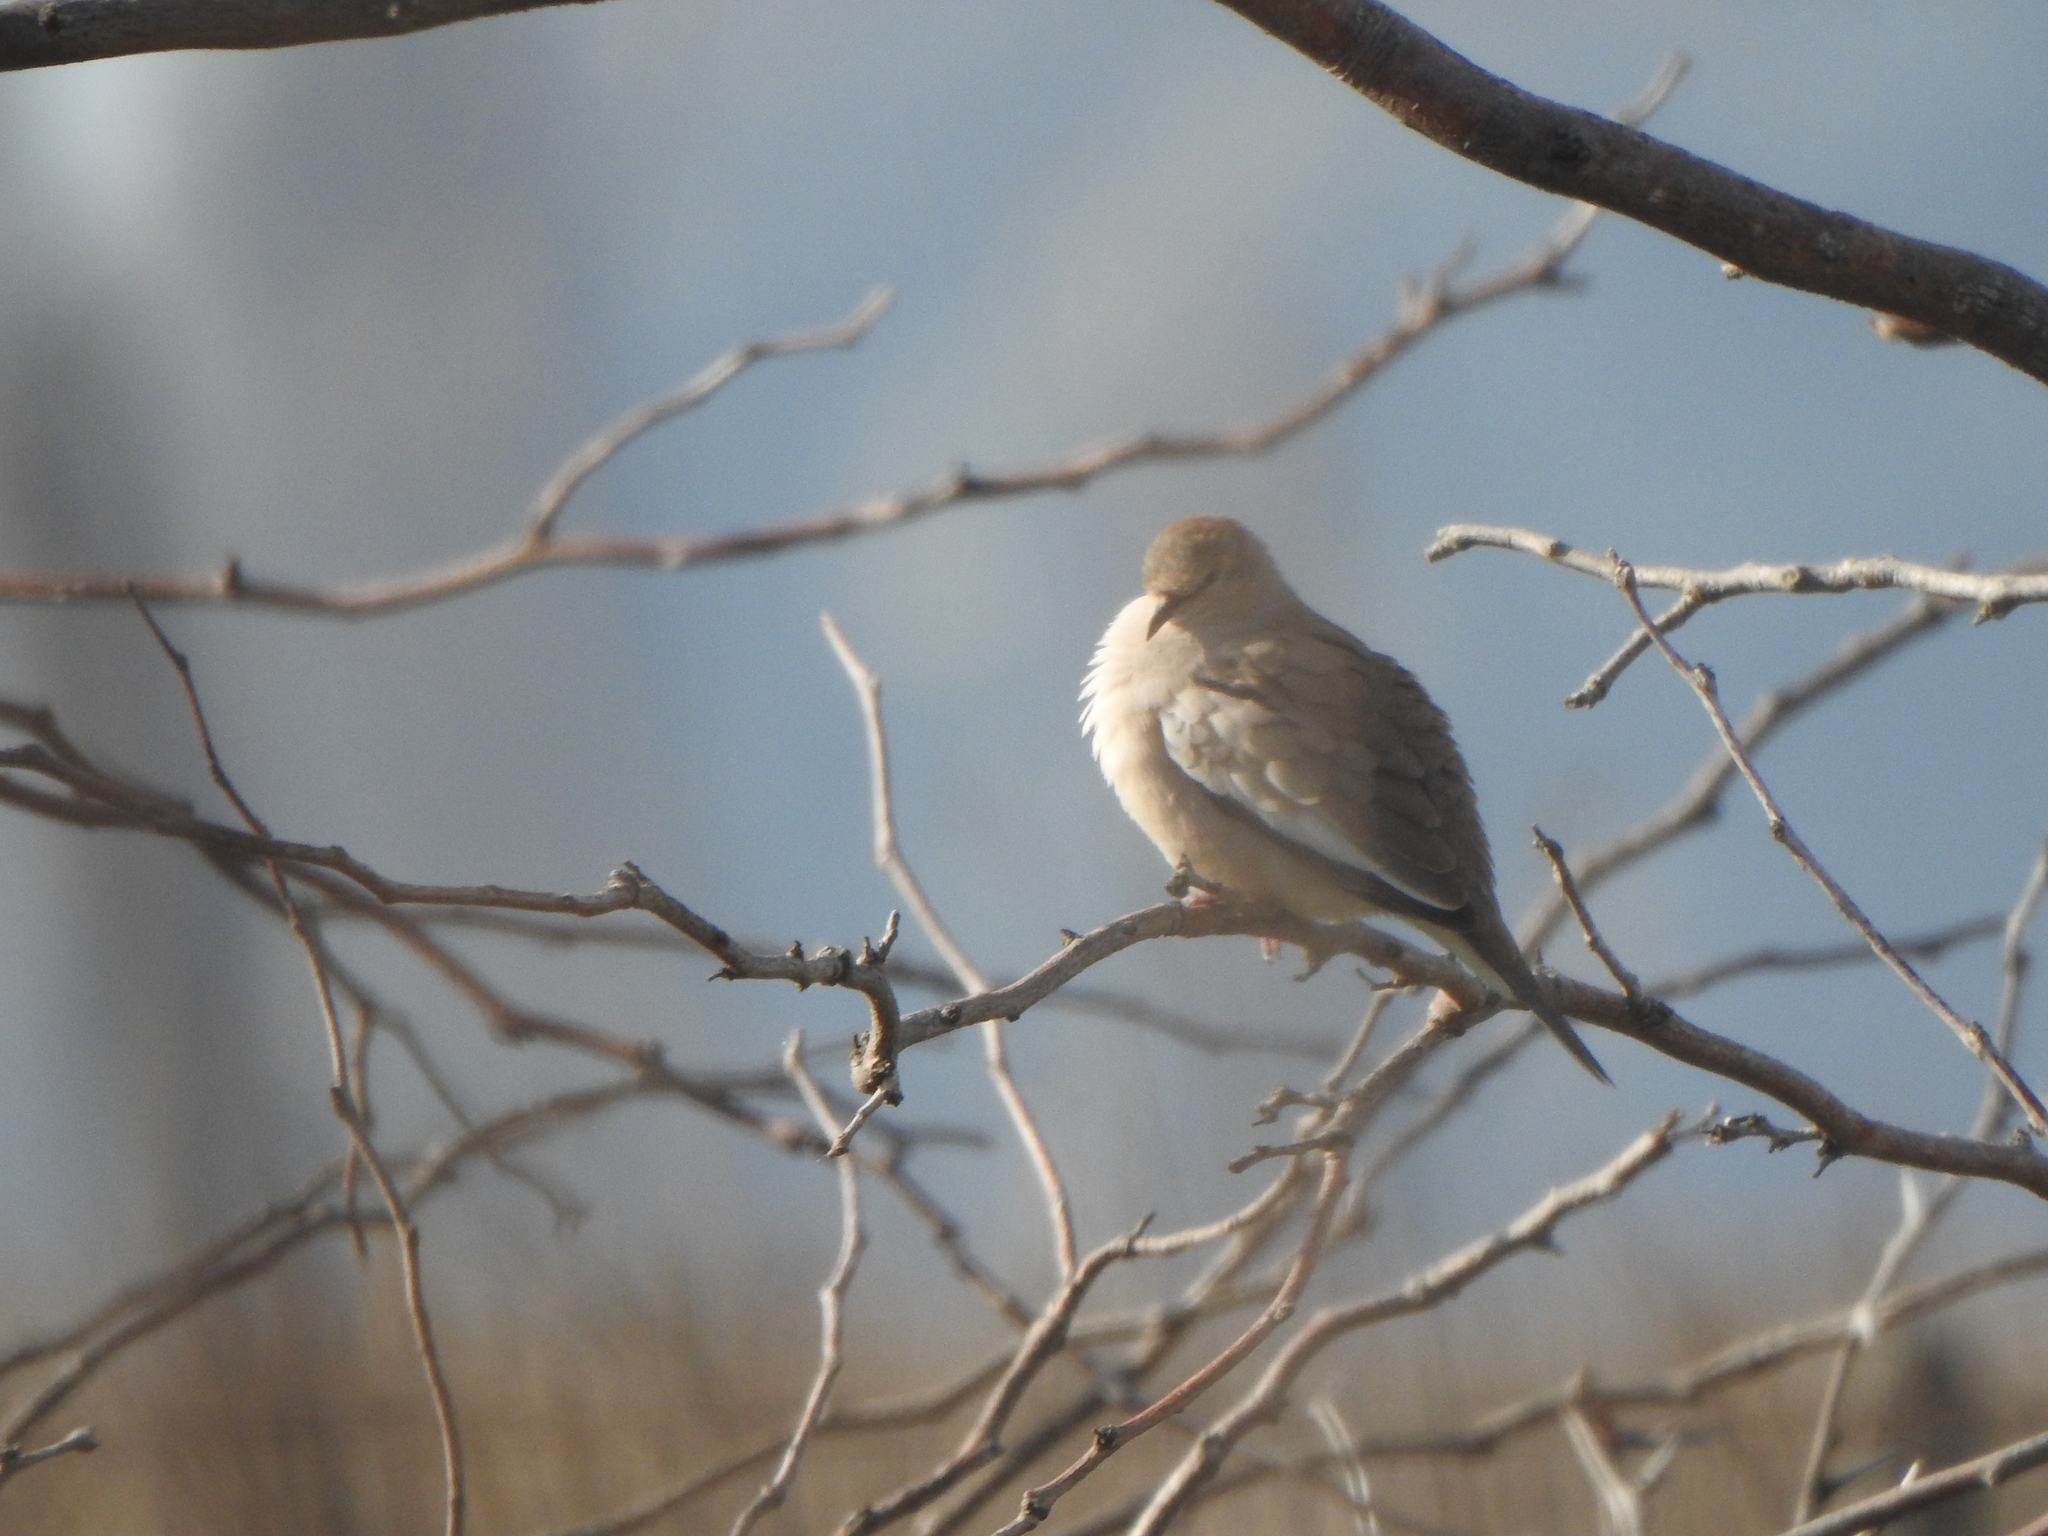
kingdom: Animalia
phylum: Chordata
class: Aves
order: Columbiformes
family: Columbidae
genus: Columbina
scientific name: Columbina picui
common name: Picui ground dove
